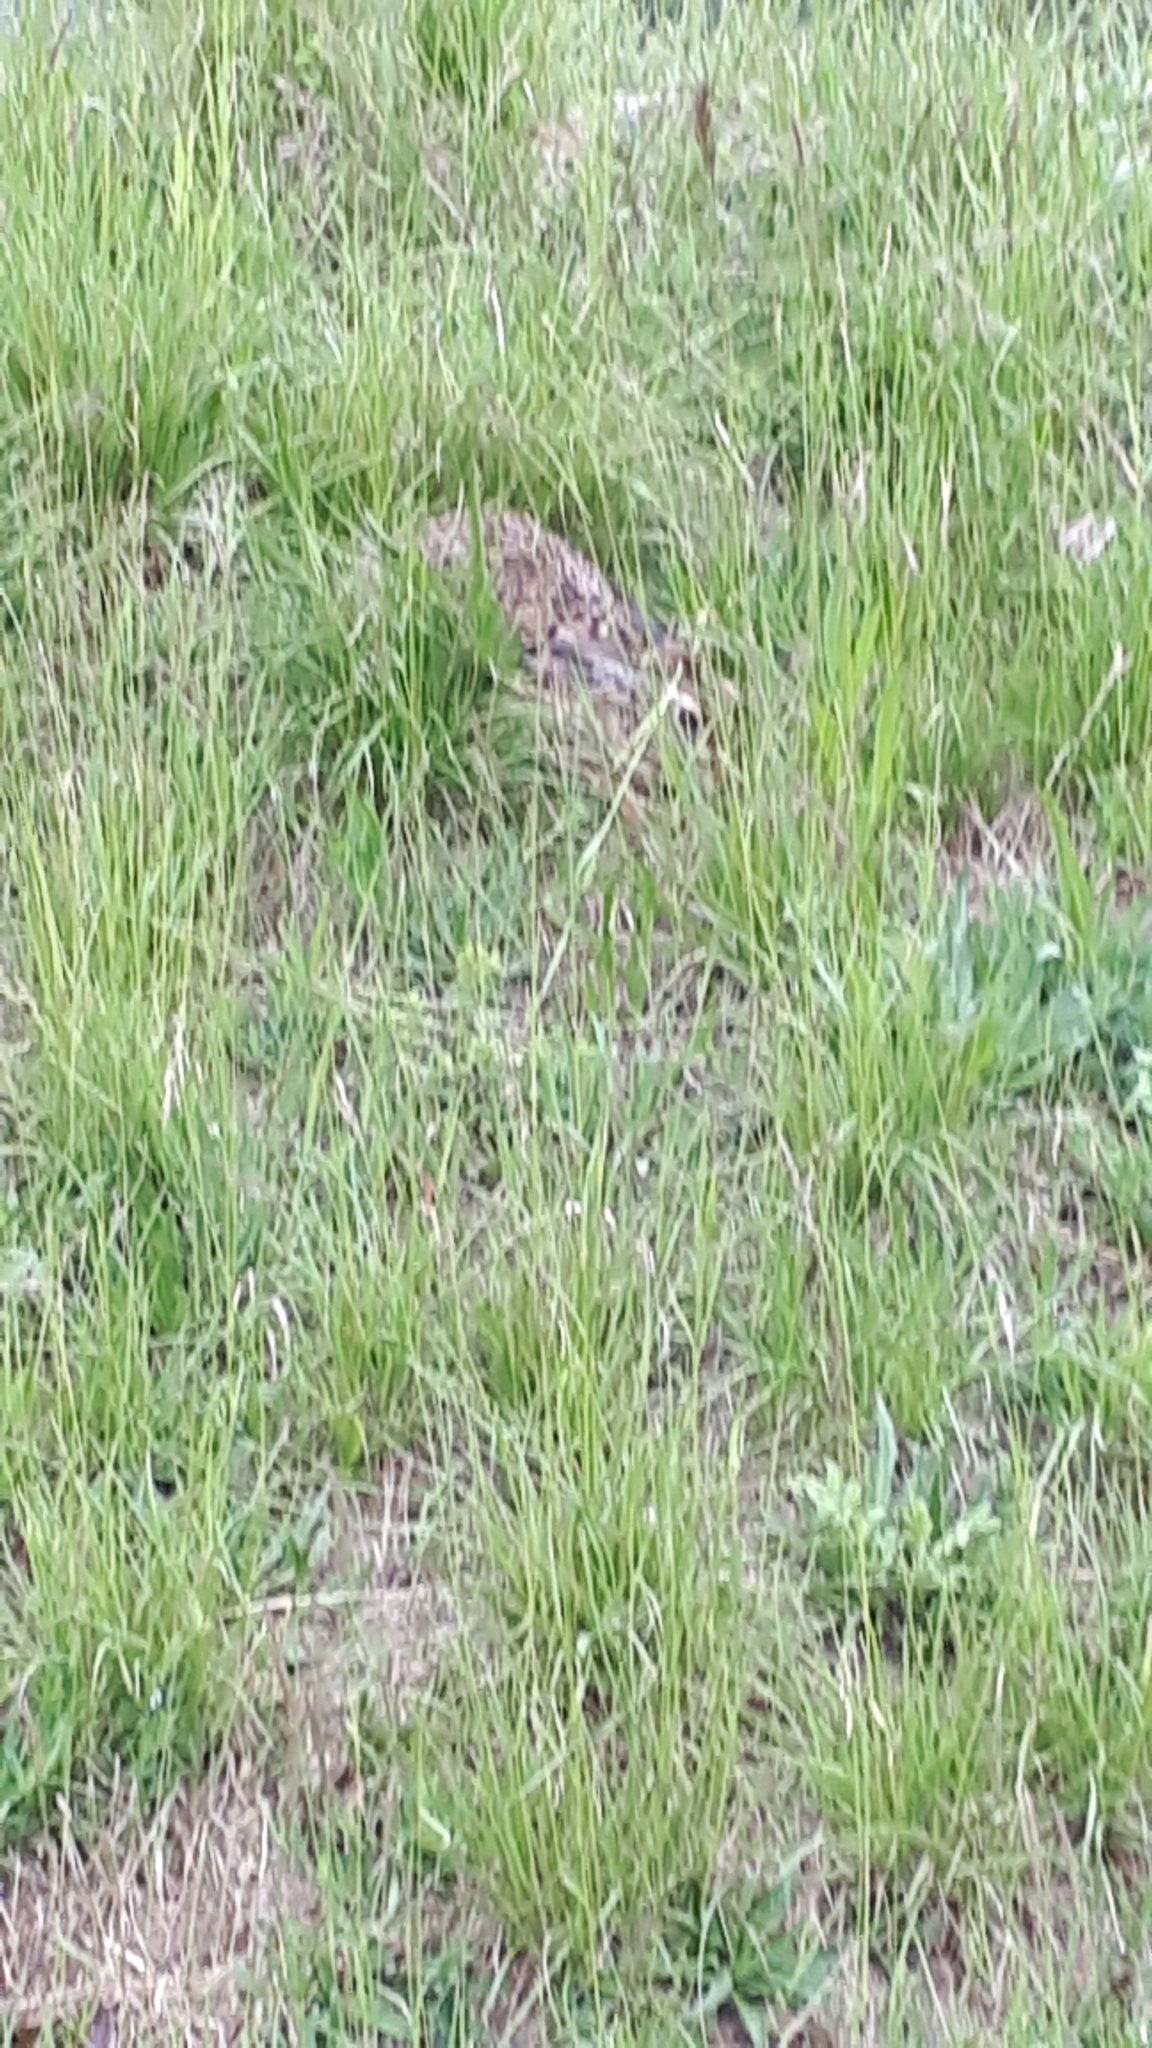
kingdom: Animalia
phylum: Chordata
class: Mammalia
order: Lagomorpha
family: Leporidae
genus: Lepus
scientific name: Lepus europaeus
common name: European hare
